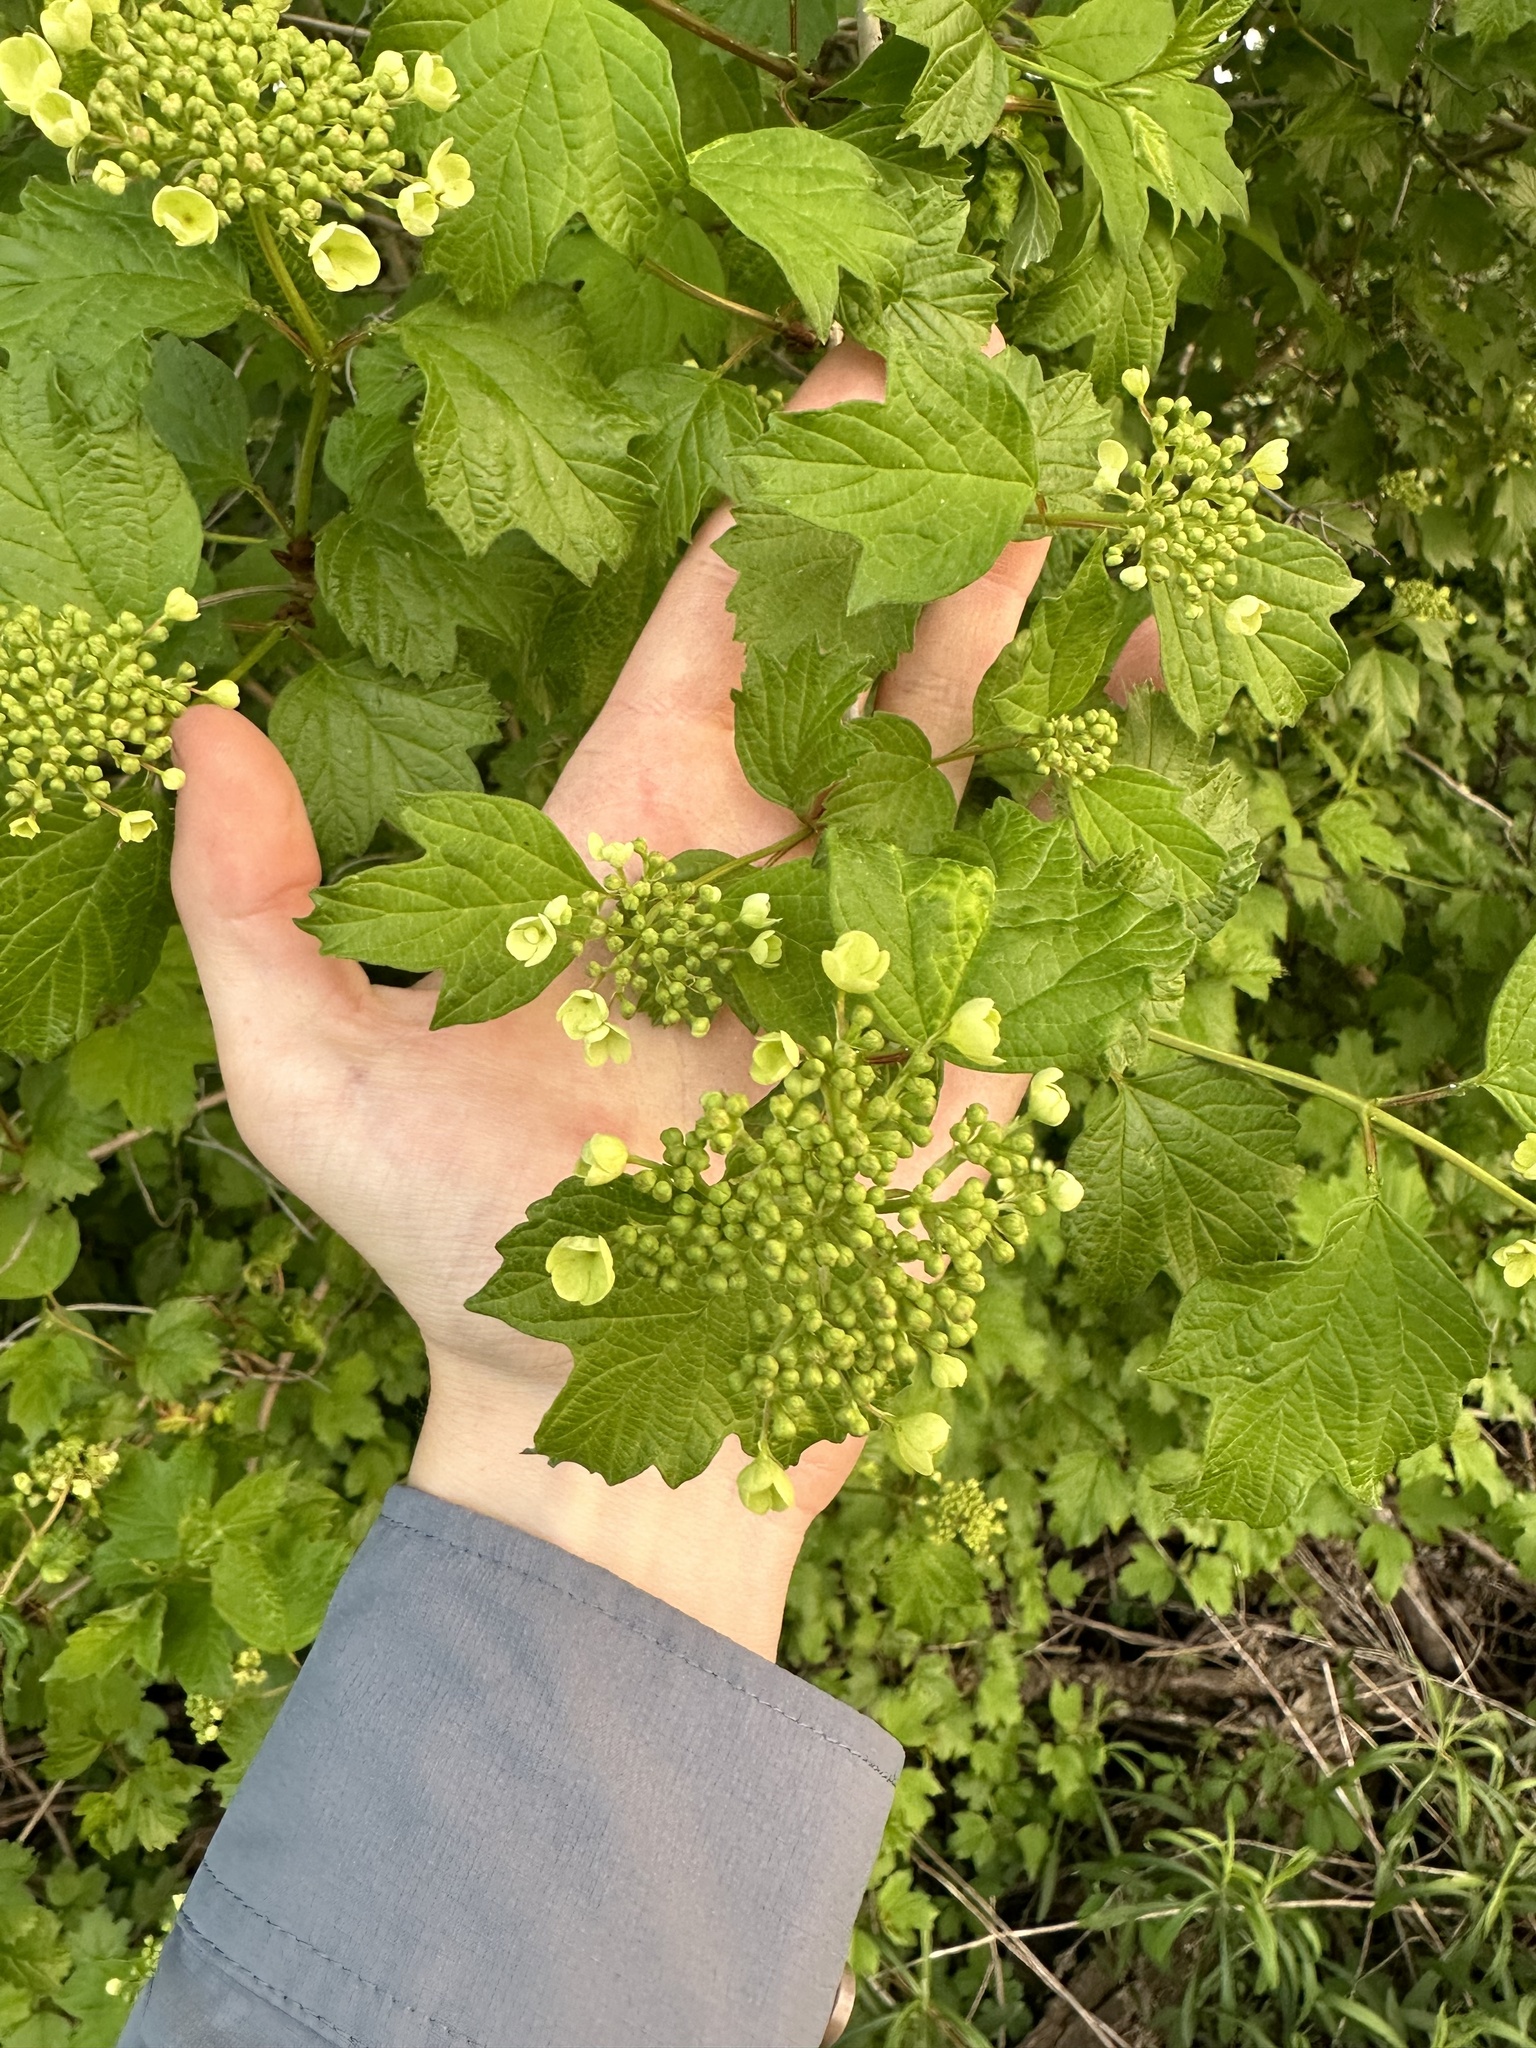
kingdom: Plantae
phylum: Tracheophyta
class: Magnoliopsida
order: Dipsacales
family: Viburnaceae
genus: Viburnum
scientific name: Viburnum opulus
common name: Guelder-rose
